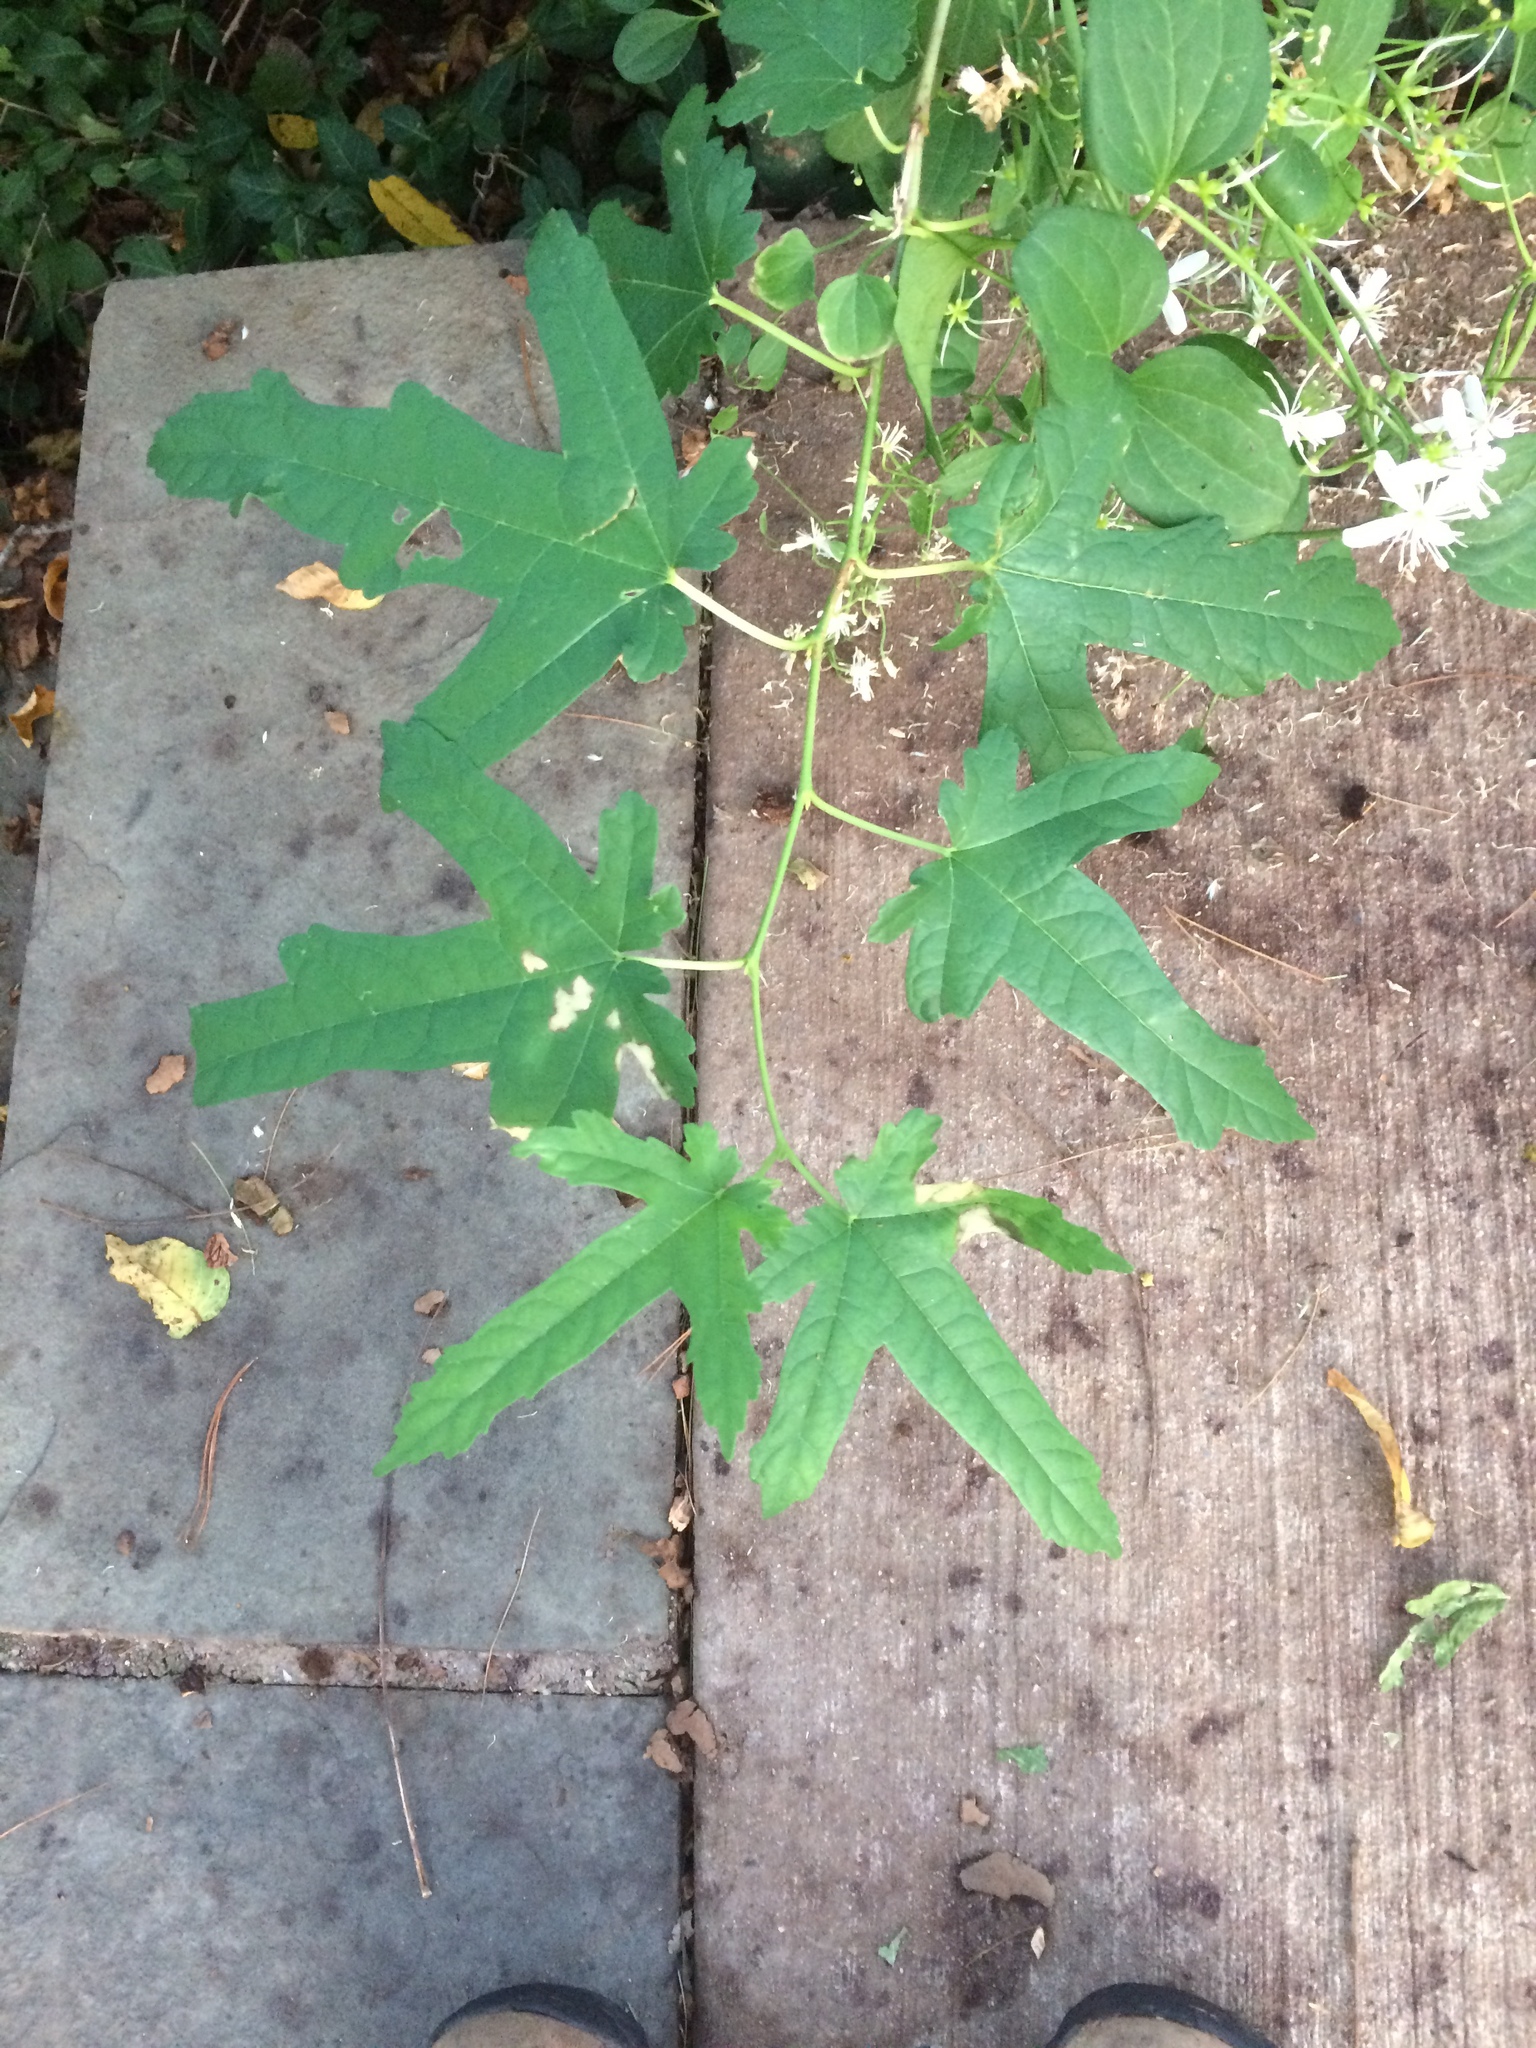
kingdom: Plantae
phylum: Tracheophyta
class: Magnoliopsida
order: Rosales
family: Moraceae
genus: Morus
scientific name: Morus indica
